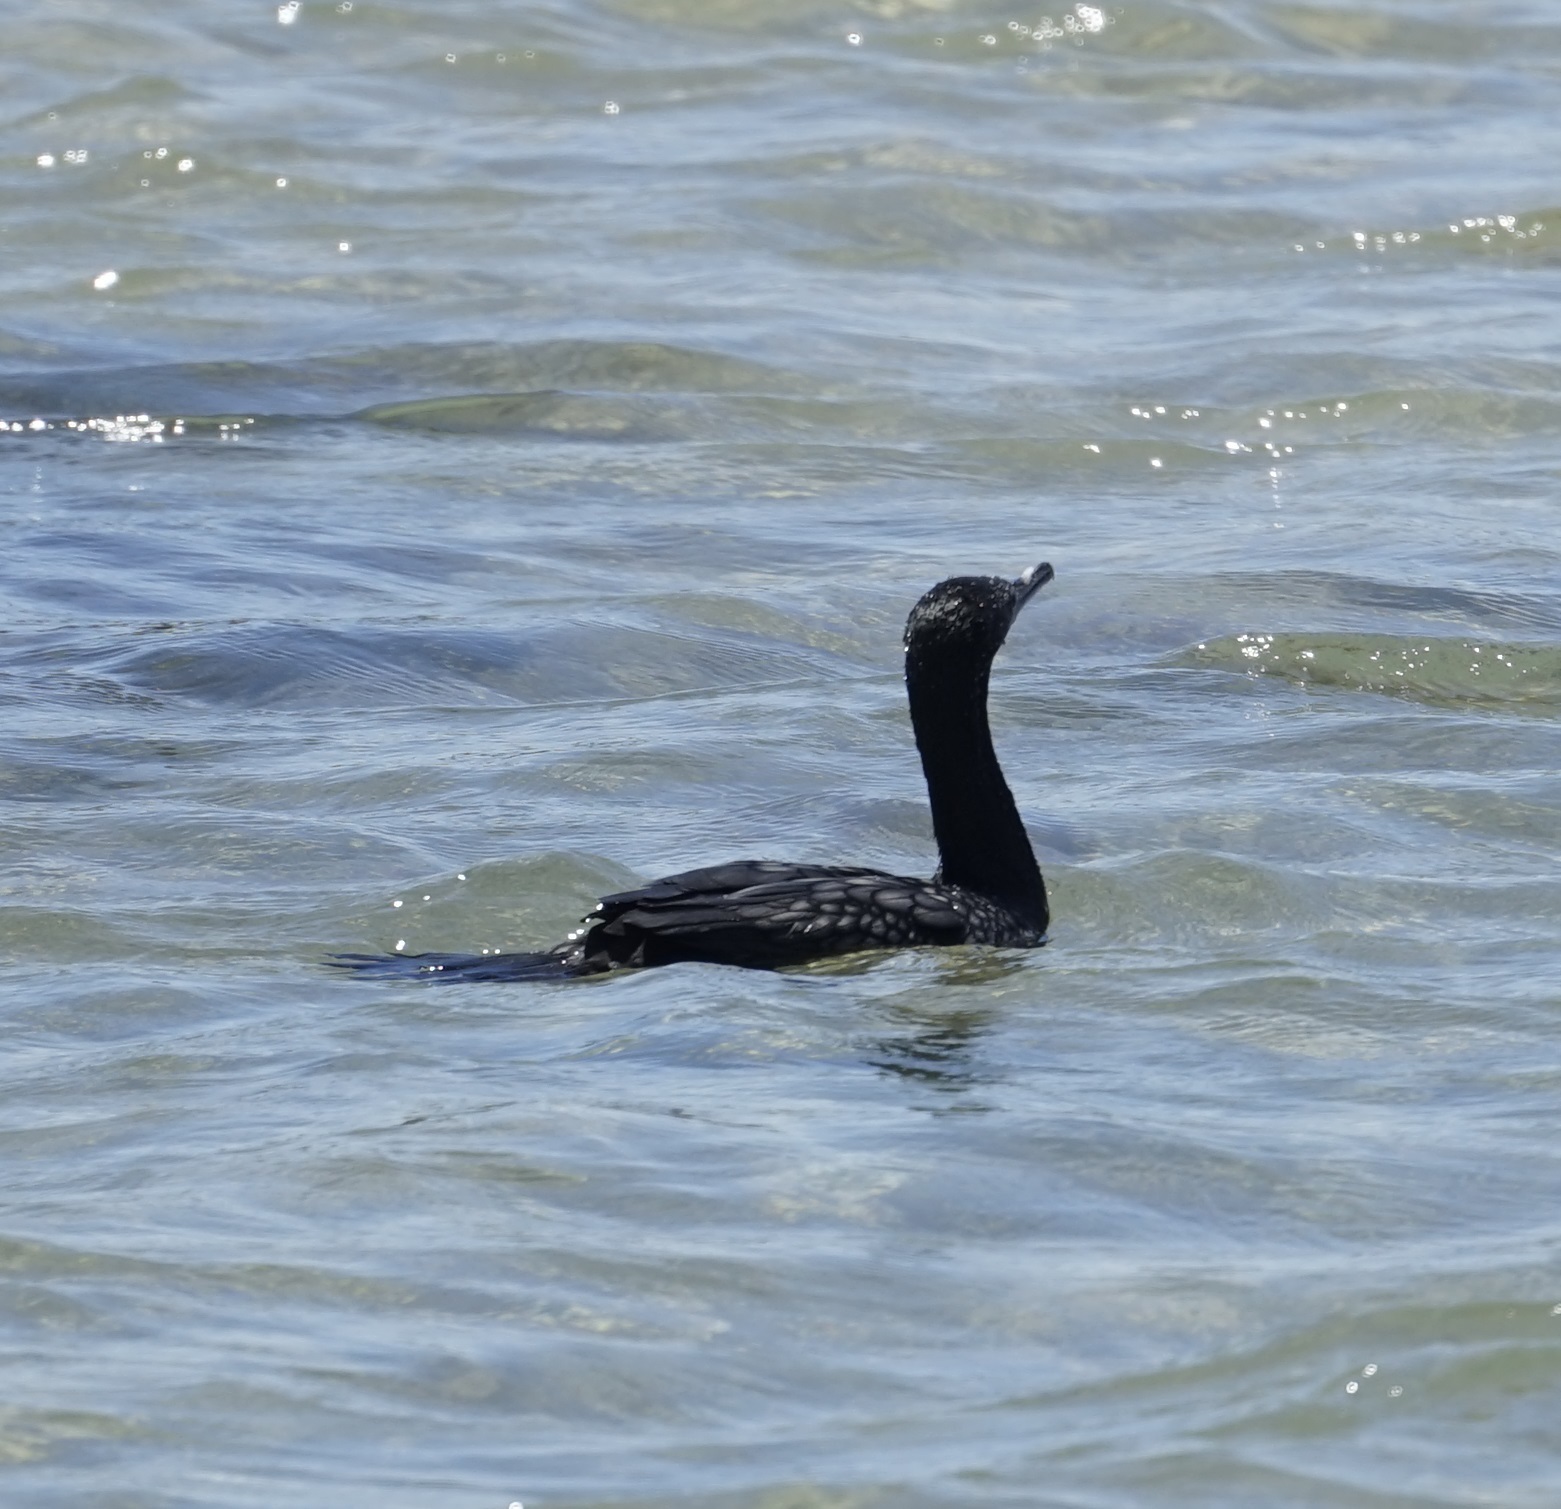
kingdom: Animalia
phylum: Chordata
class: Aves
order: Suliformes
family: Phalacrocoracidae
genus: Phalacrocorax
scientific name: Phalacrocorax sulcirostris
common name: Little black cormorant
